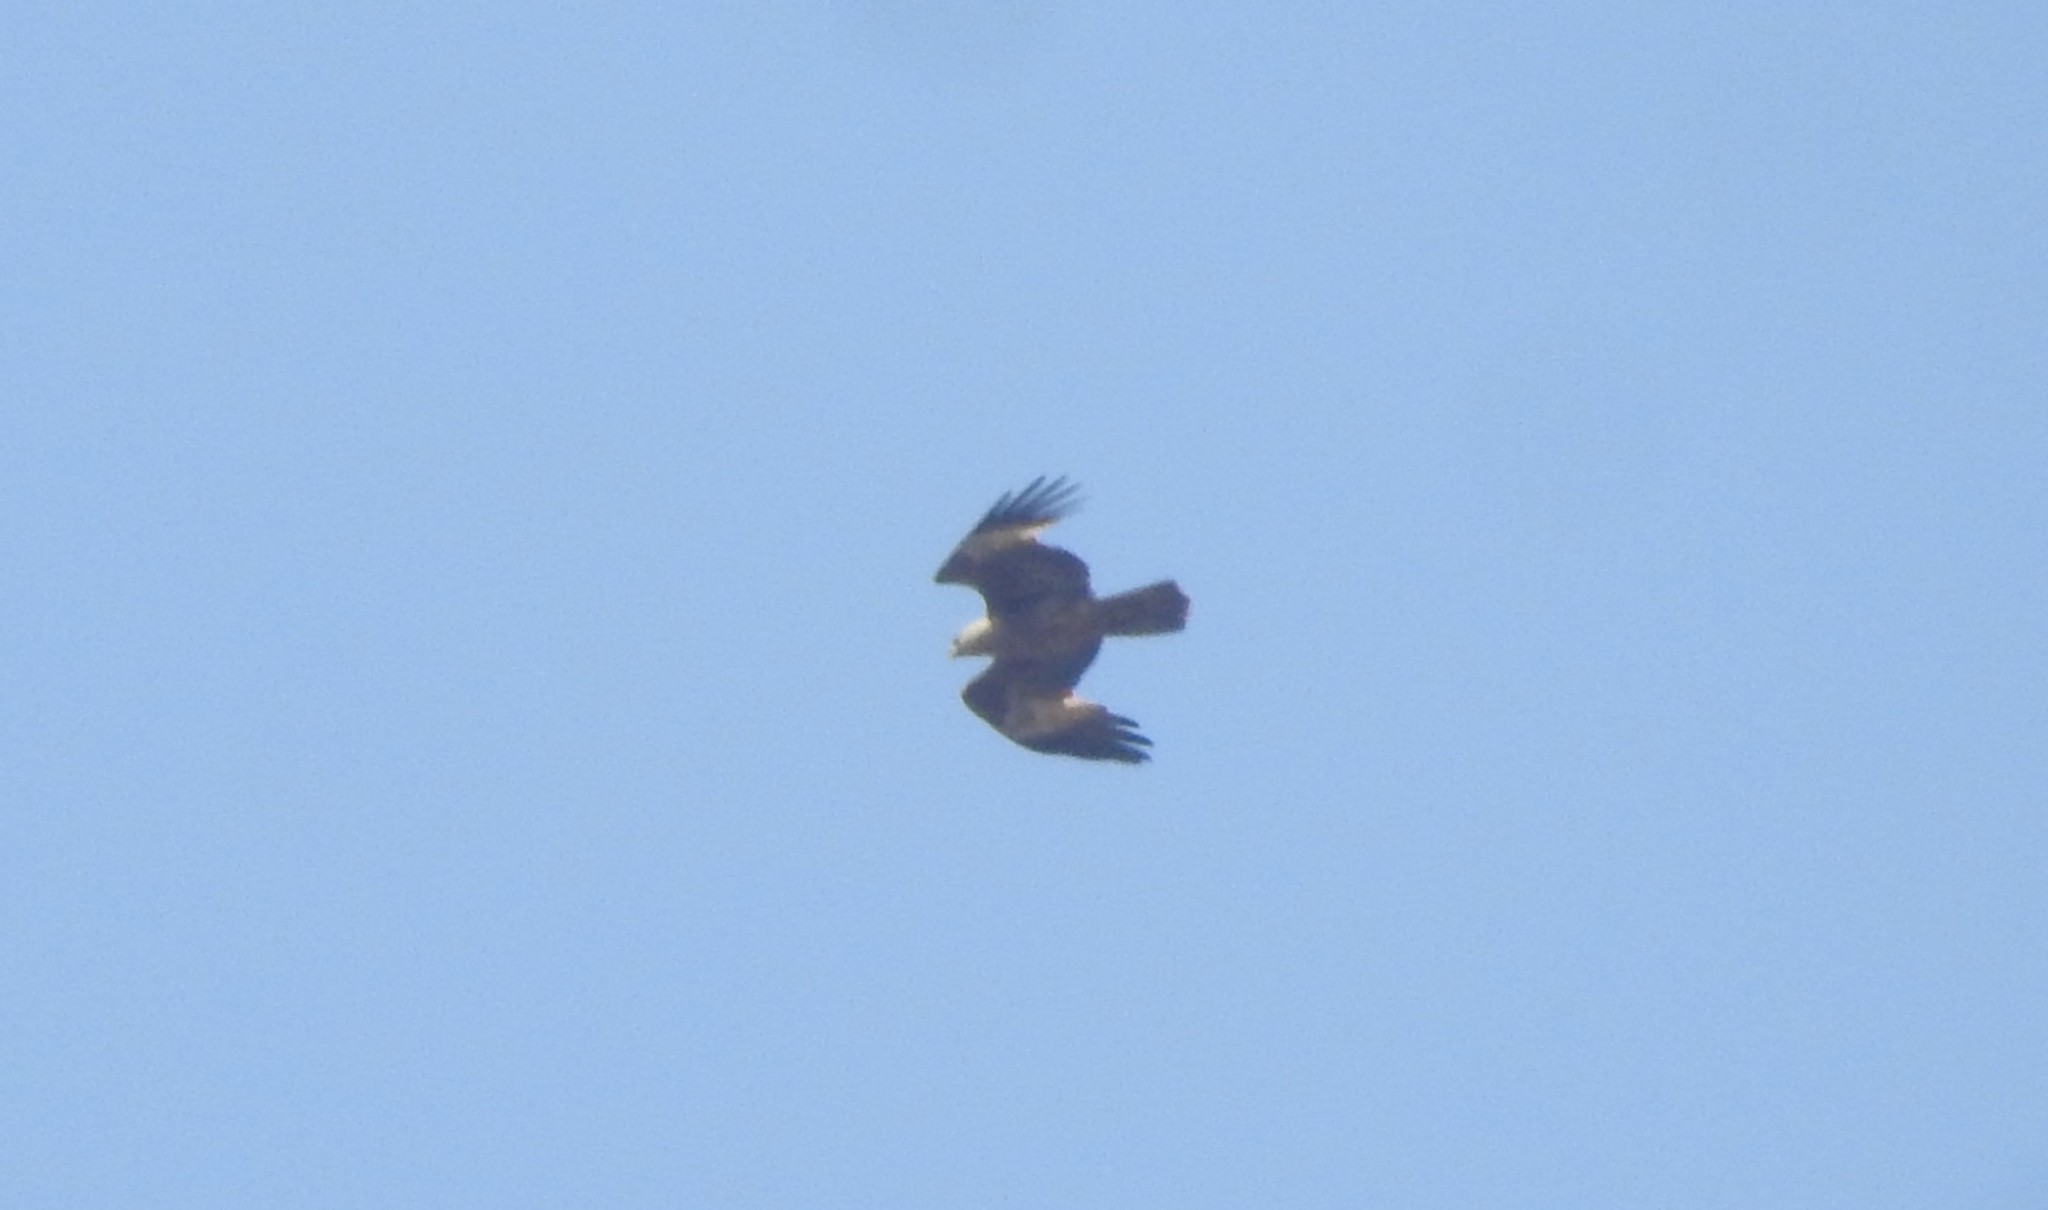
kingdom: Animalia
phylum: Chordata
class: Aves
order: Accipitriformes
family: Accipitridae
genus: Haliastur
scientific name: Haliastur indus
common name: Brahminy kite
